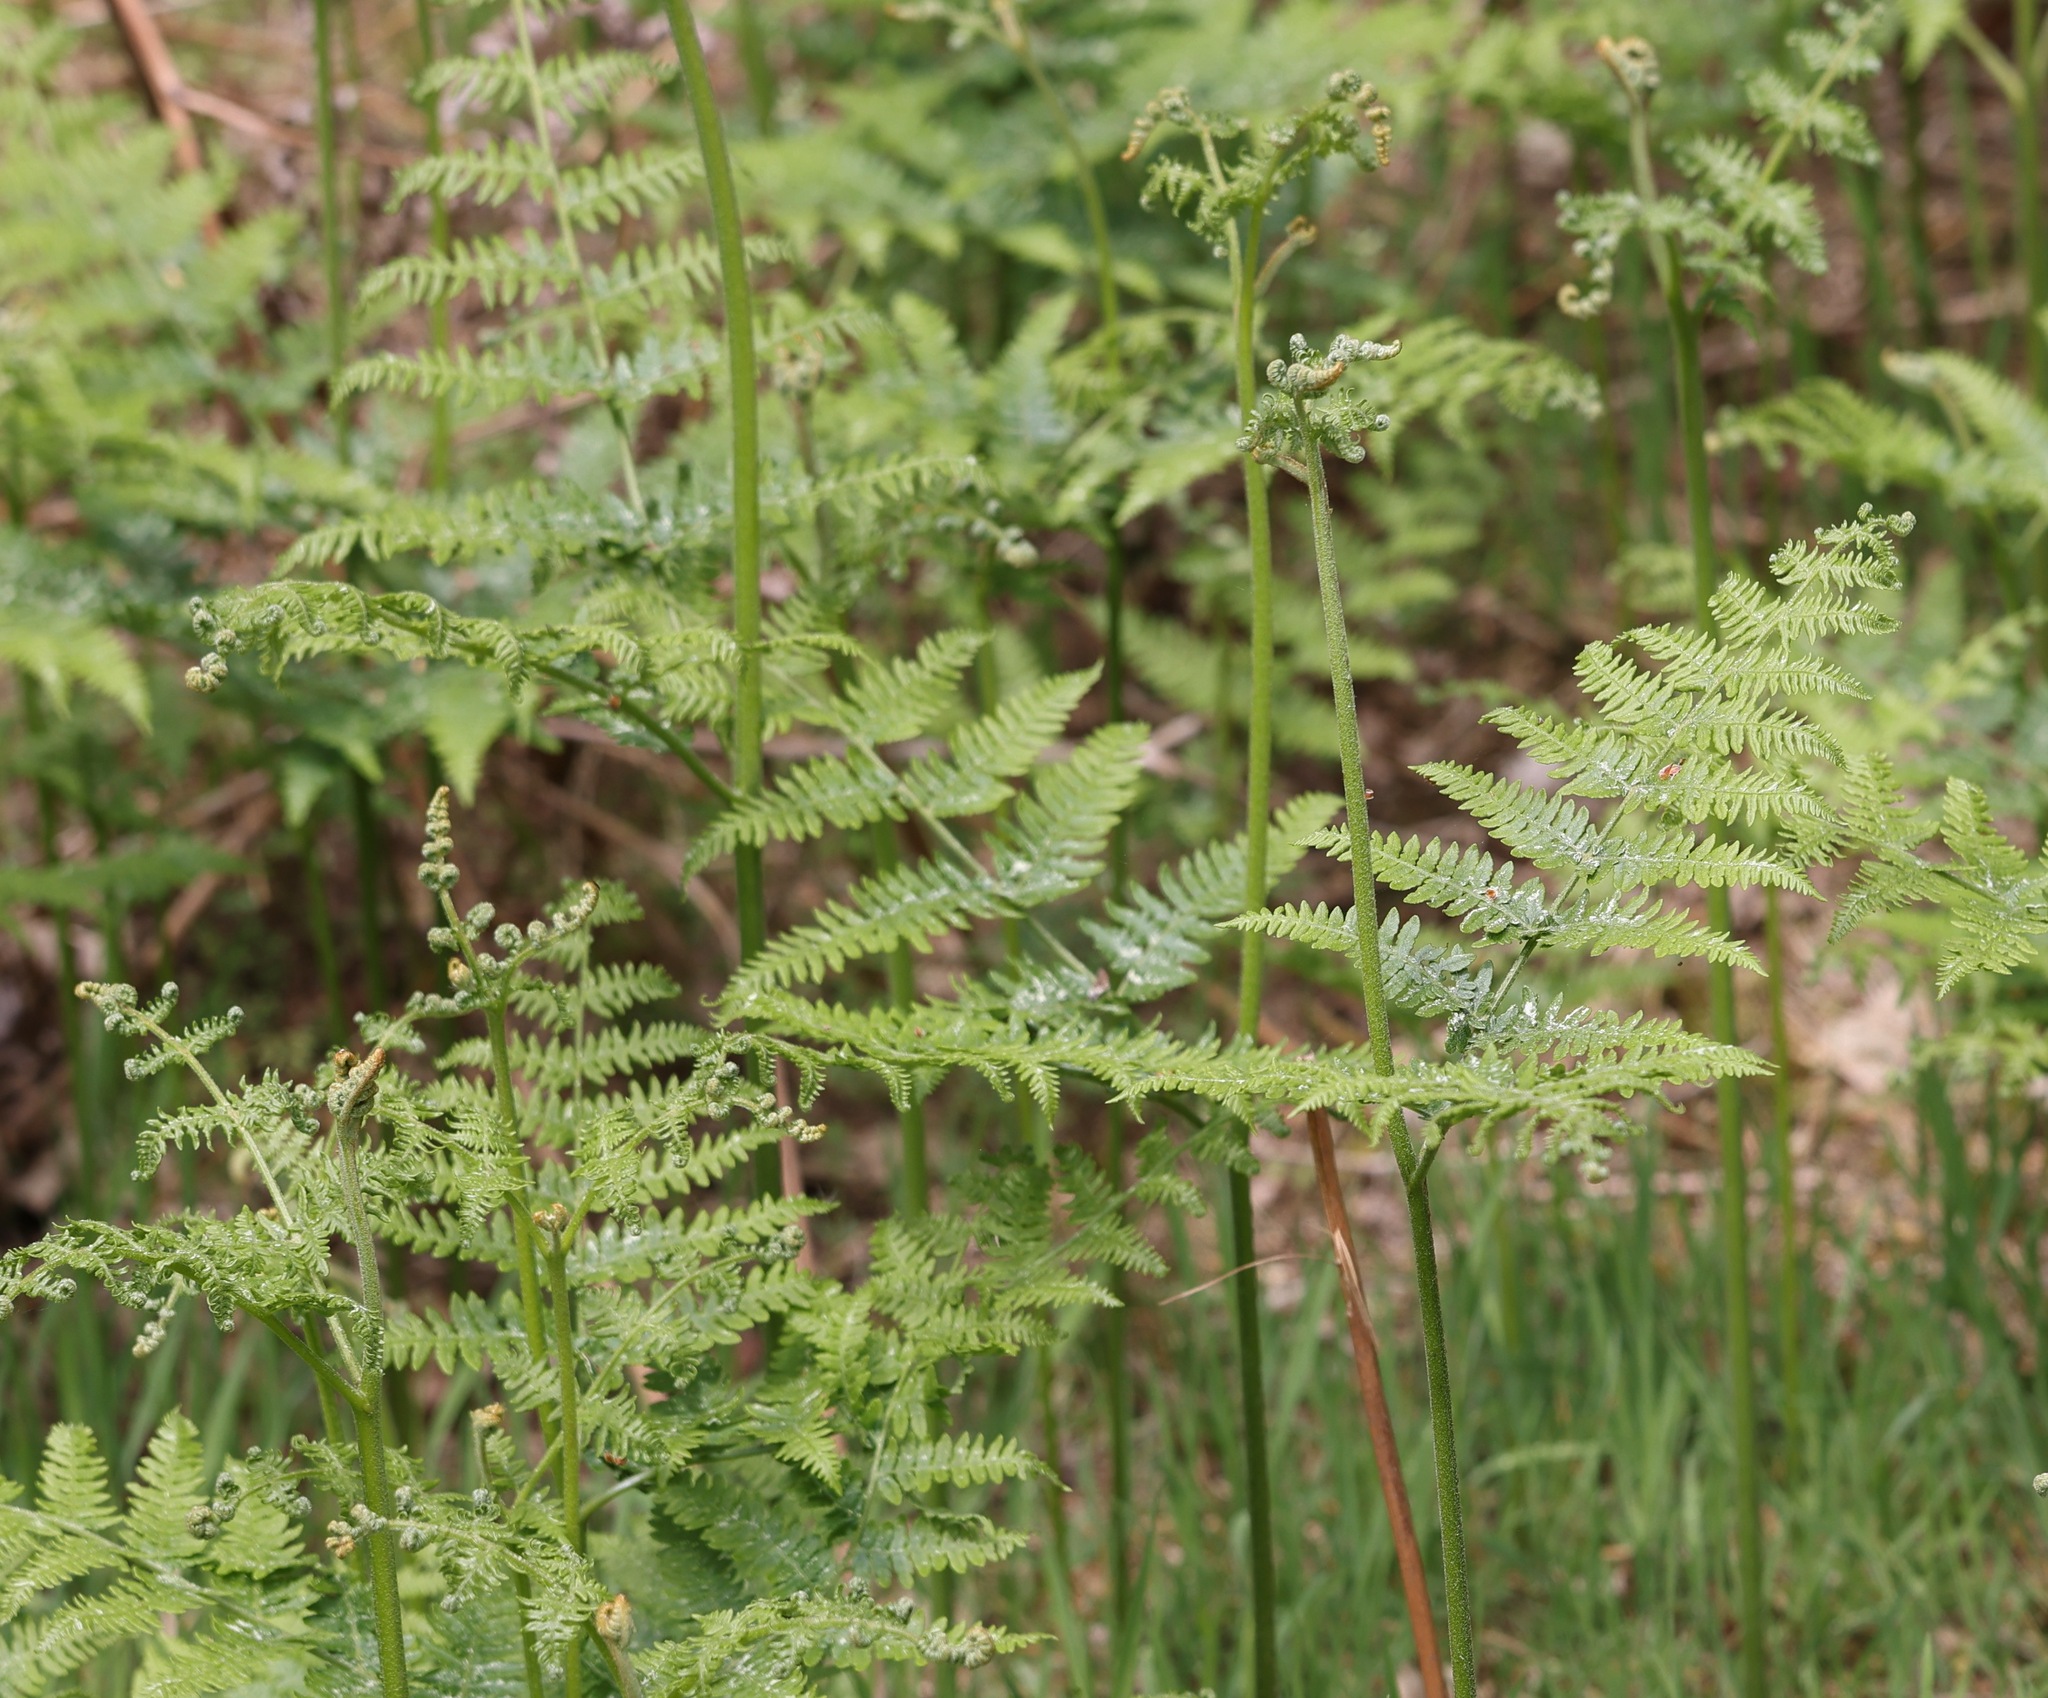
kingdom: Plantae
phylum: Tracheophyta
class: Polypodiopsida
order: Polypodiales
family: Dennstaedtiaceae
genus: Pteridium
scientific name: Pteridium aquilinum
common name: Bracken
